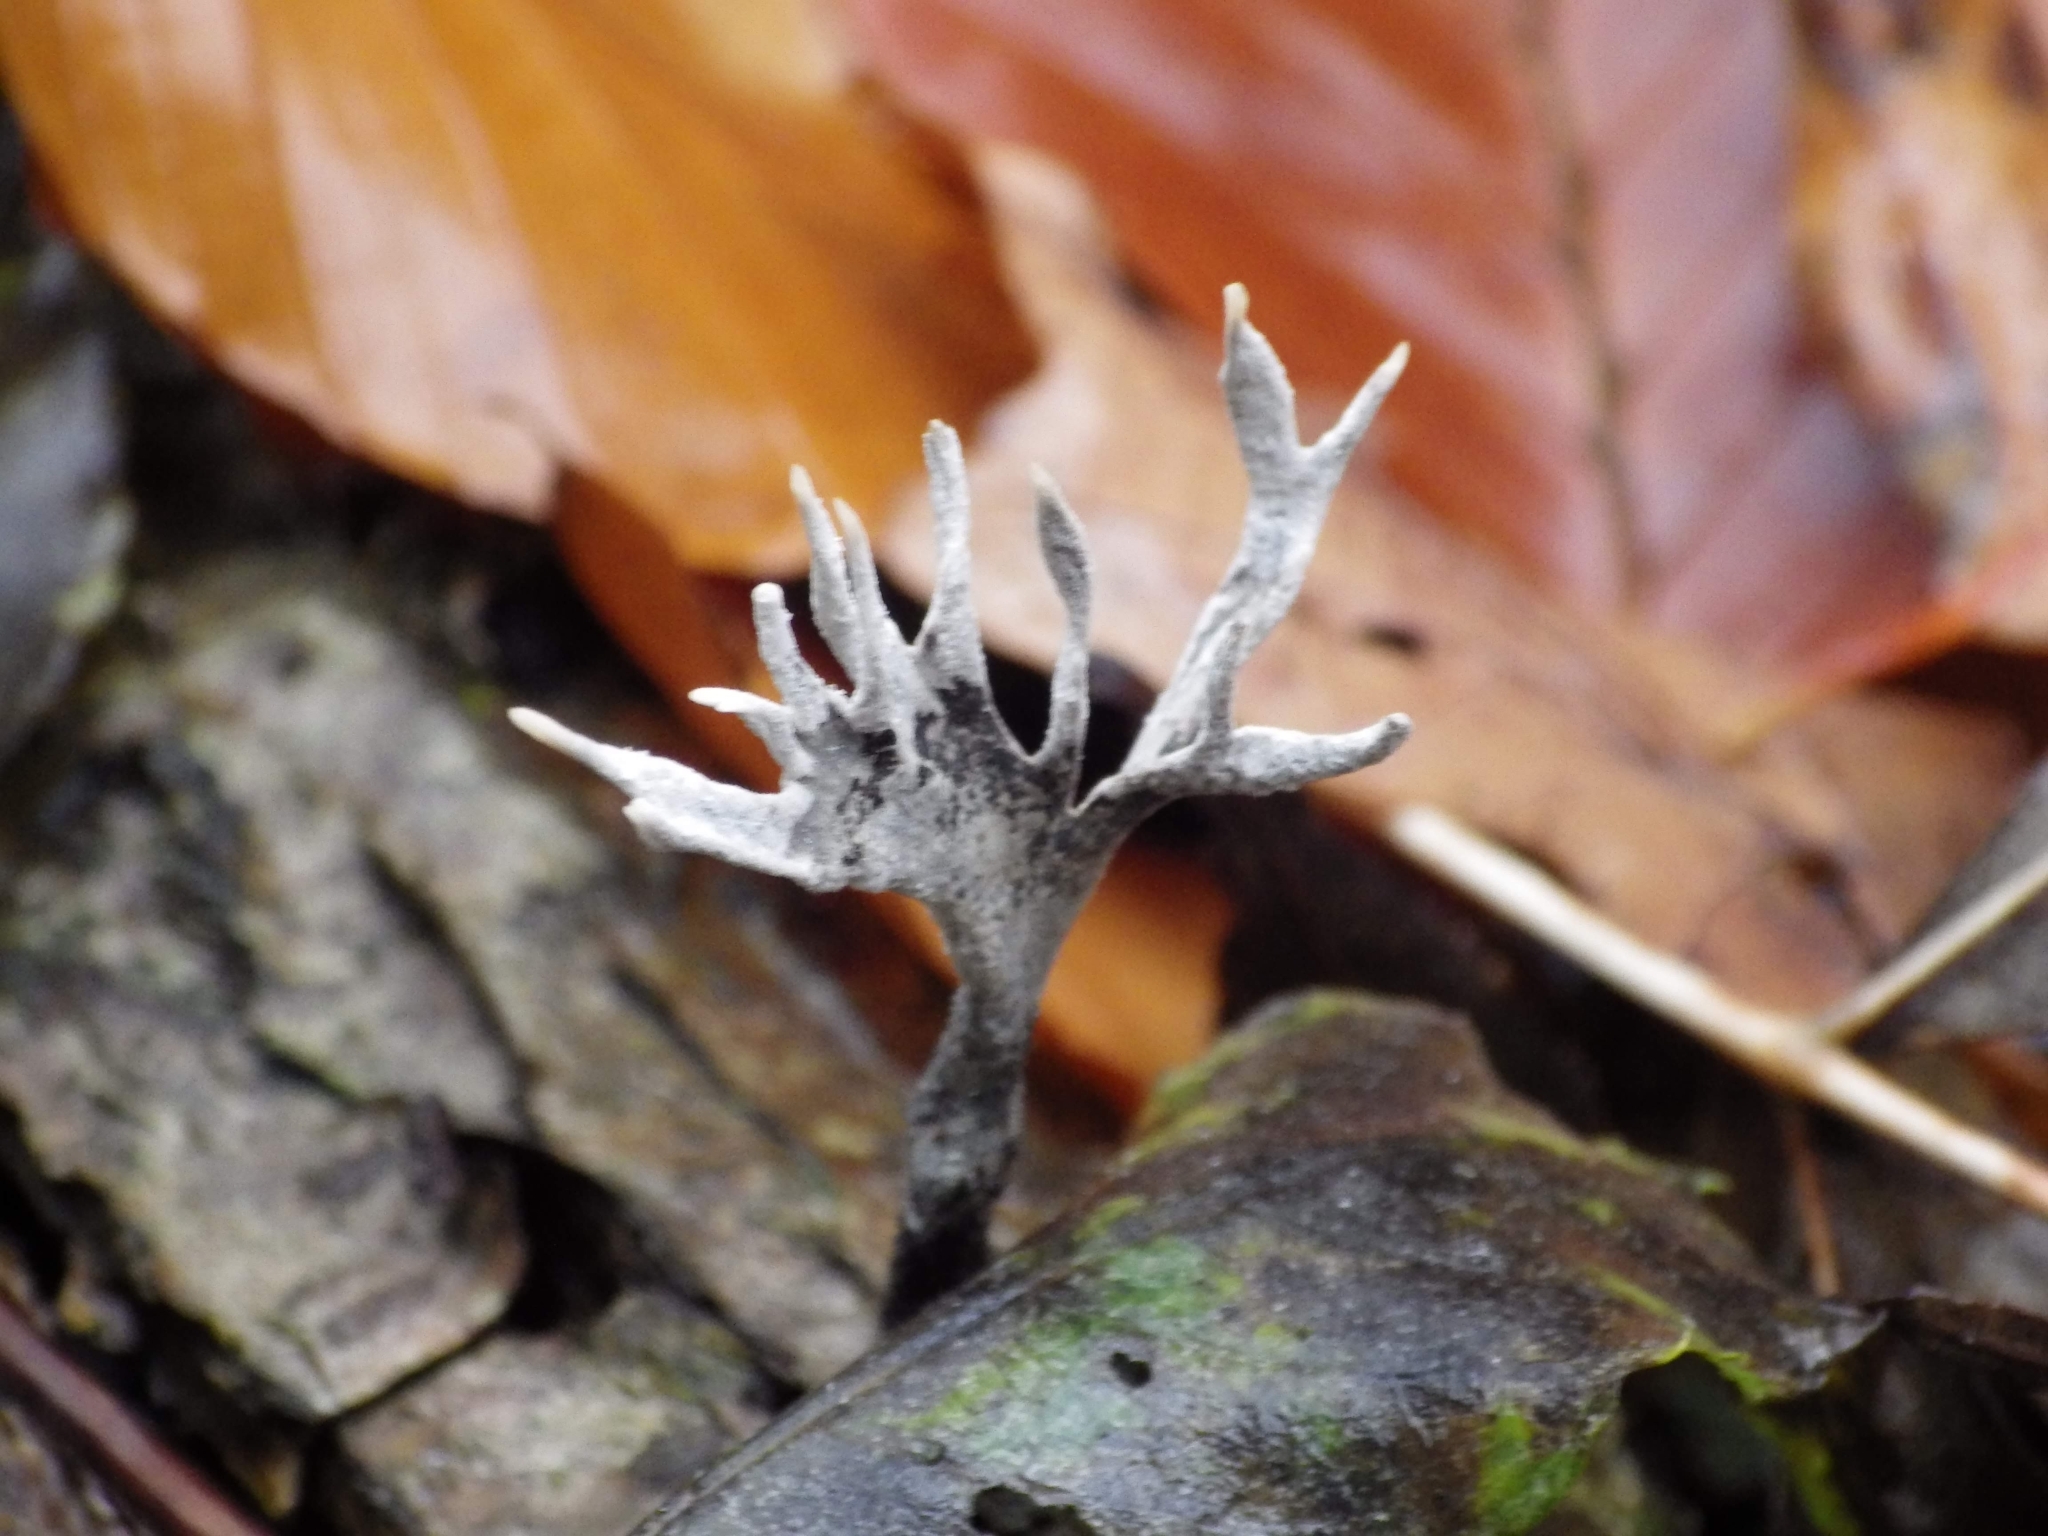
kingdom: Fungi
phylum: Ascomycota
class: Sordariomycetes
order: Xylariales
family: Xylariaceae
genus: Xylaria
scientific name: Xylaria hypoxylon
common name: Candle-snuff fungus
